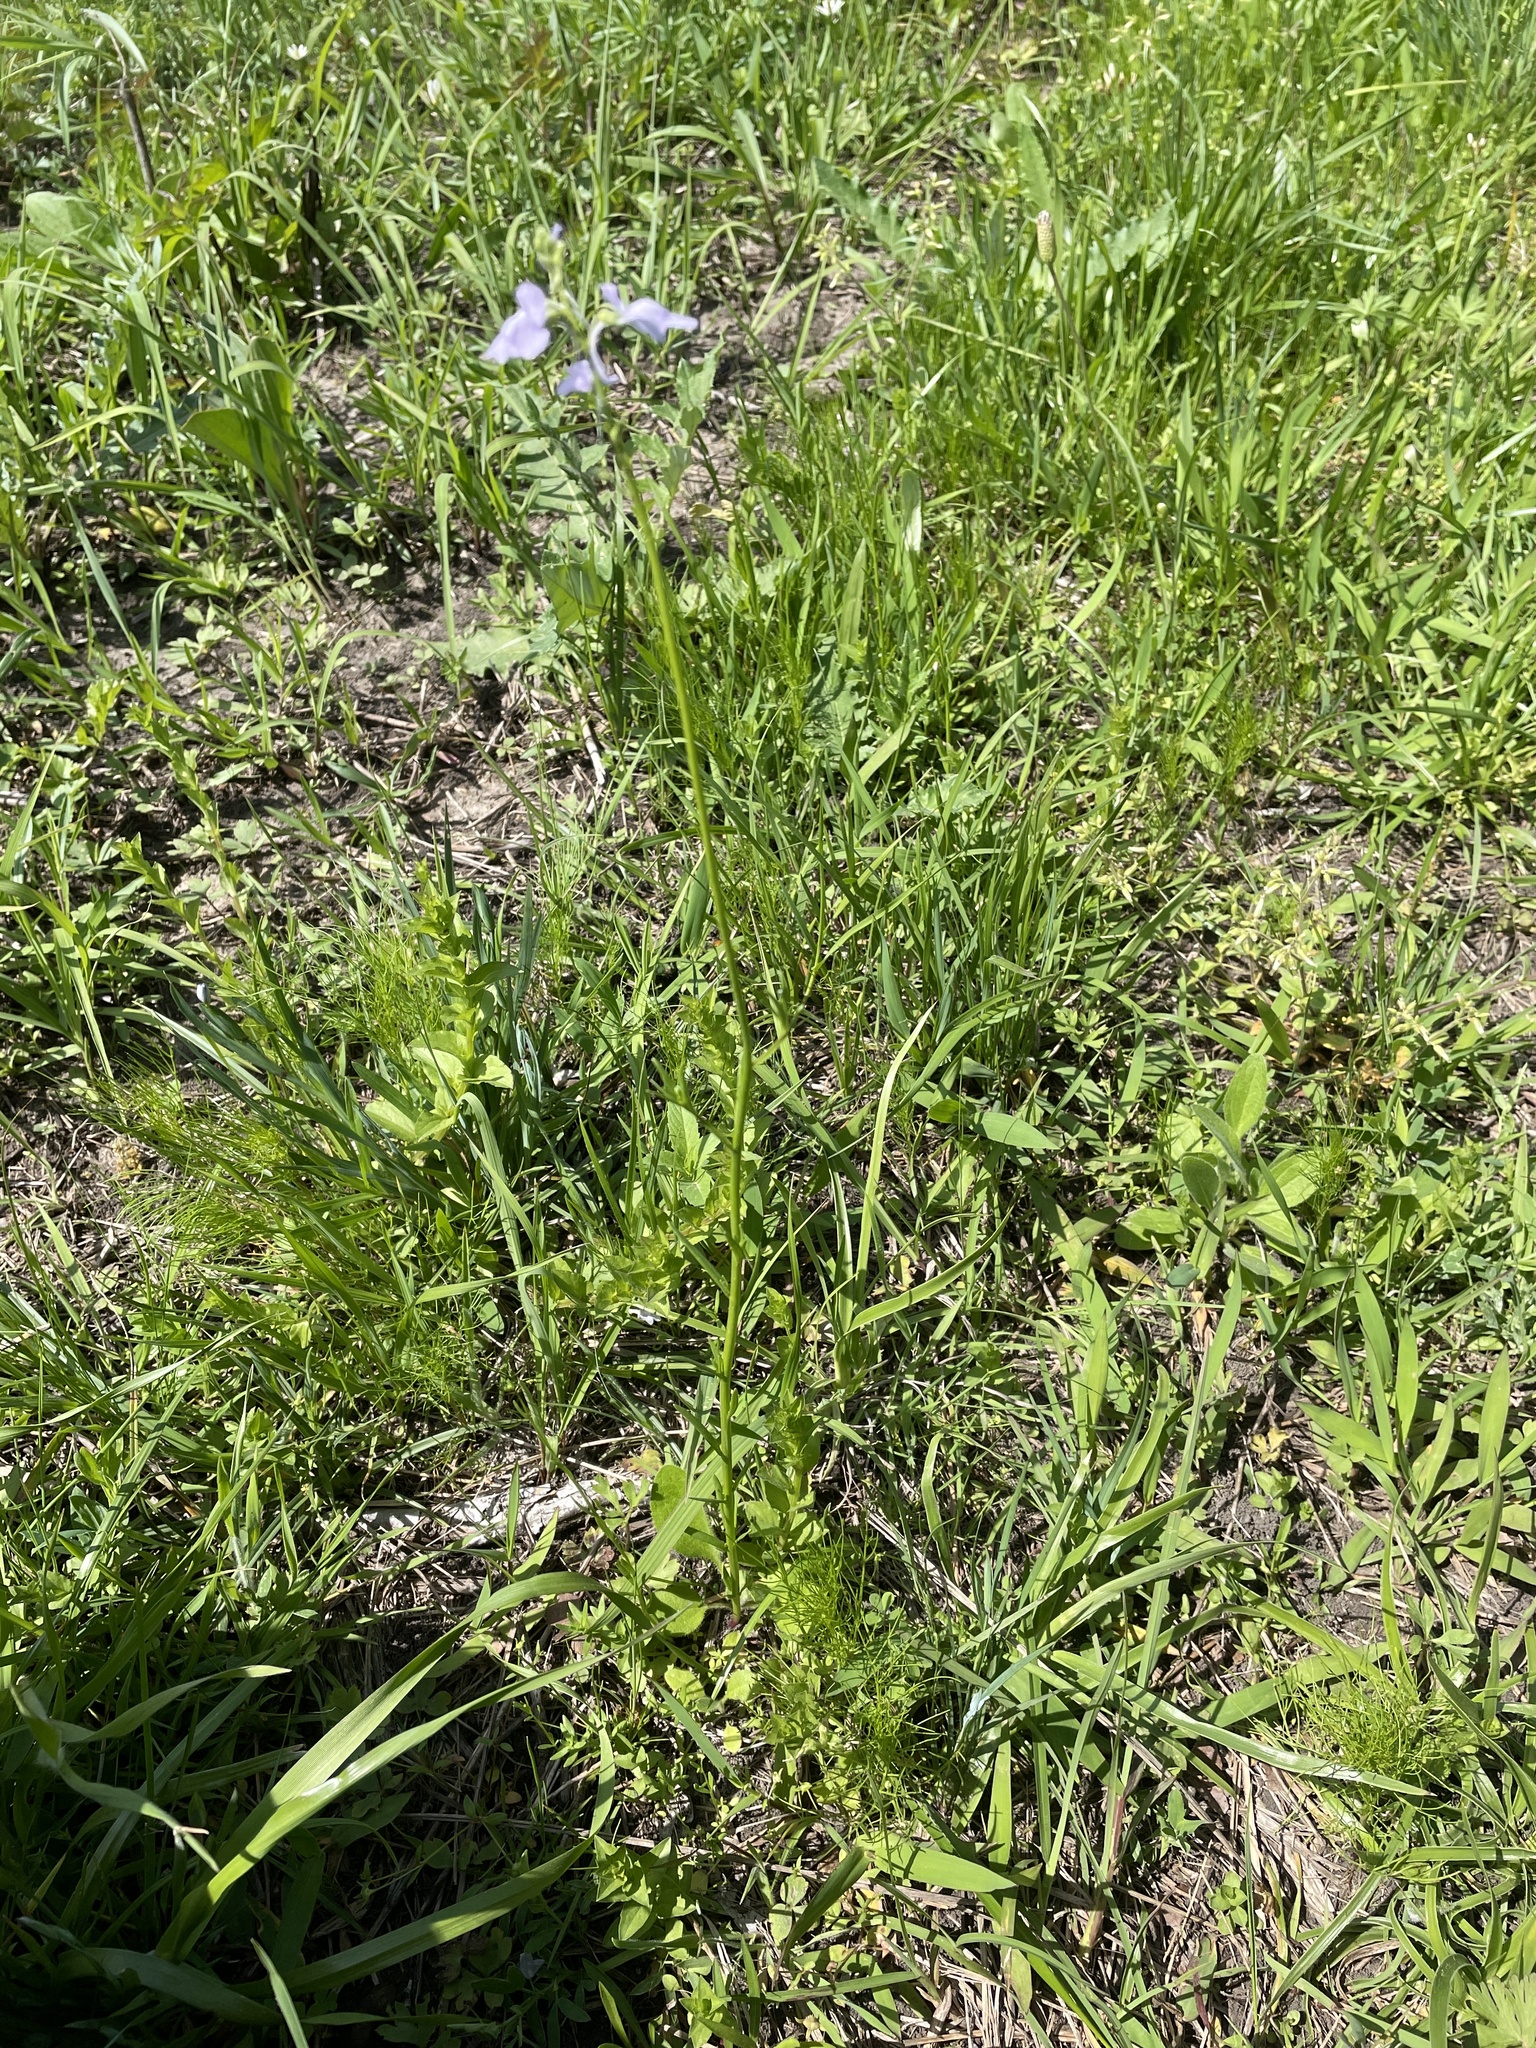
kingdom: Plantae
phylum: Tracheophyta
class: Magnoliopsida
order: Lamiales
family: Plantaginaceae
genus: Nuttallanthus
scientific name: Nuttallanthus texanus
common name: Texas toadflax
